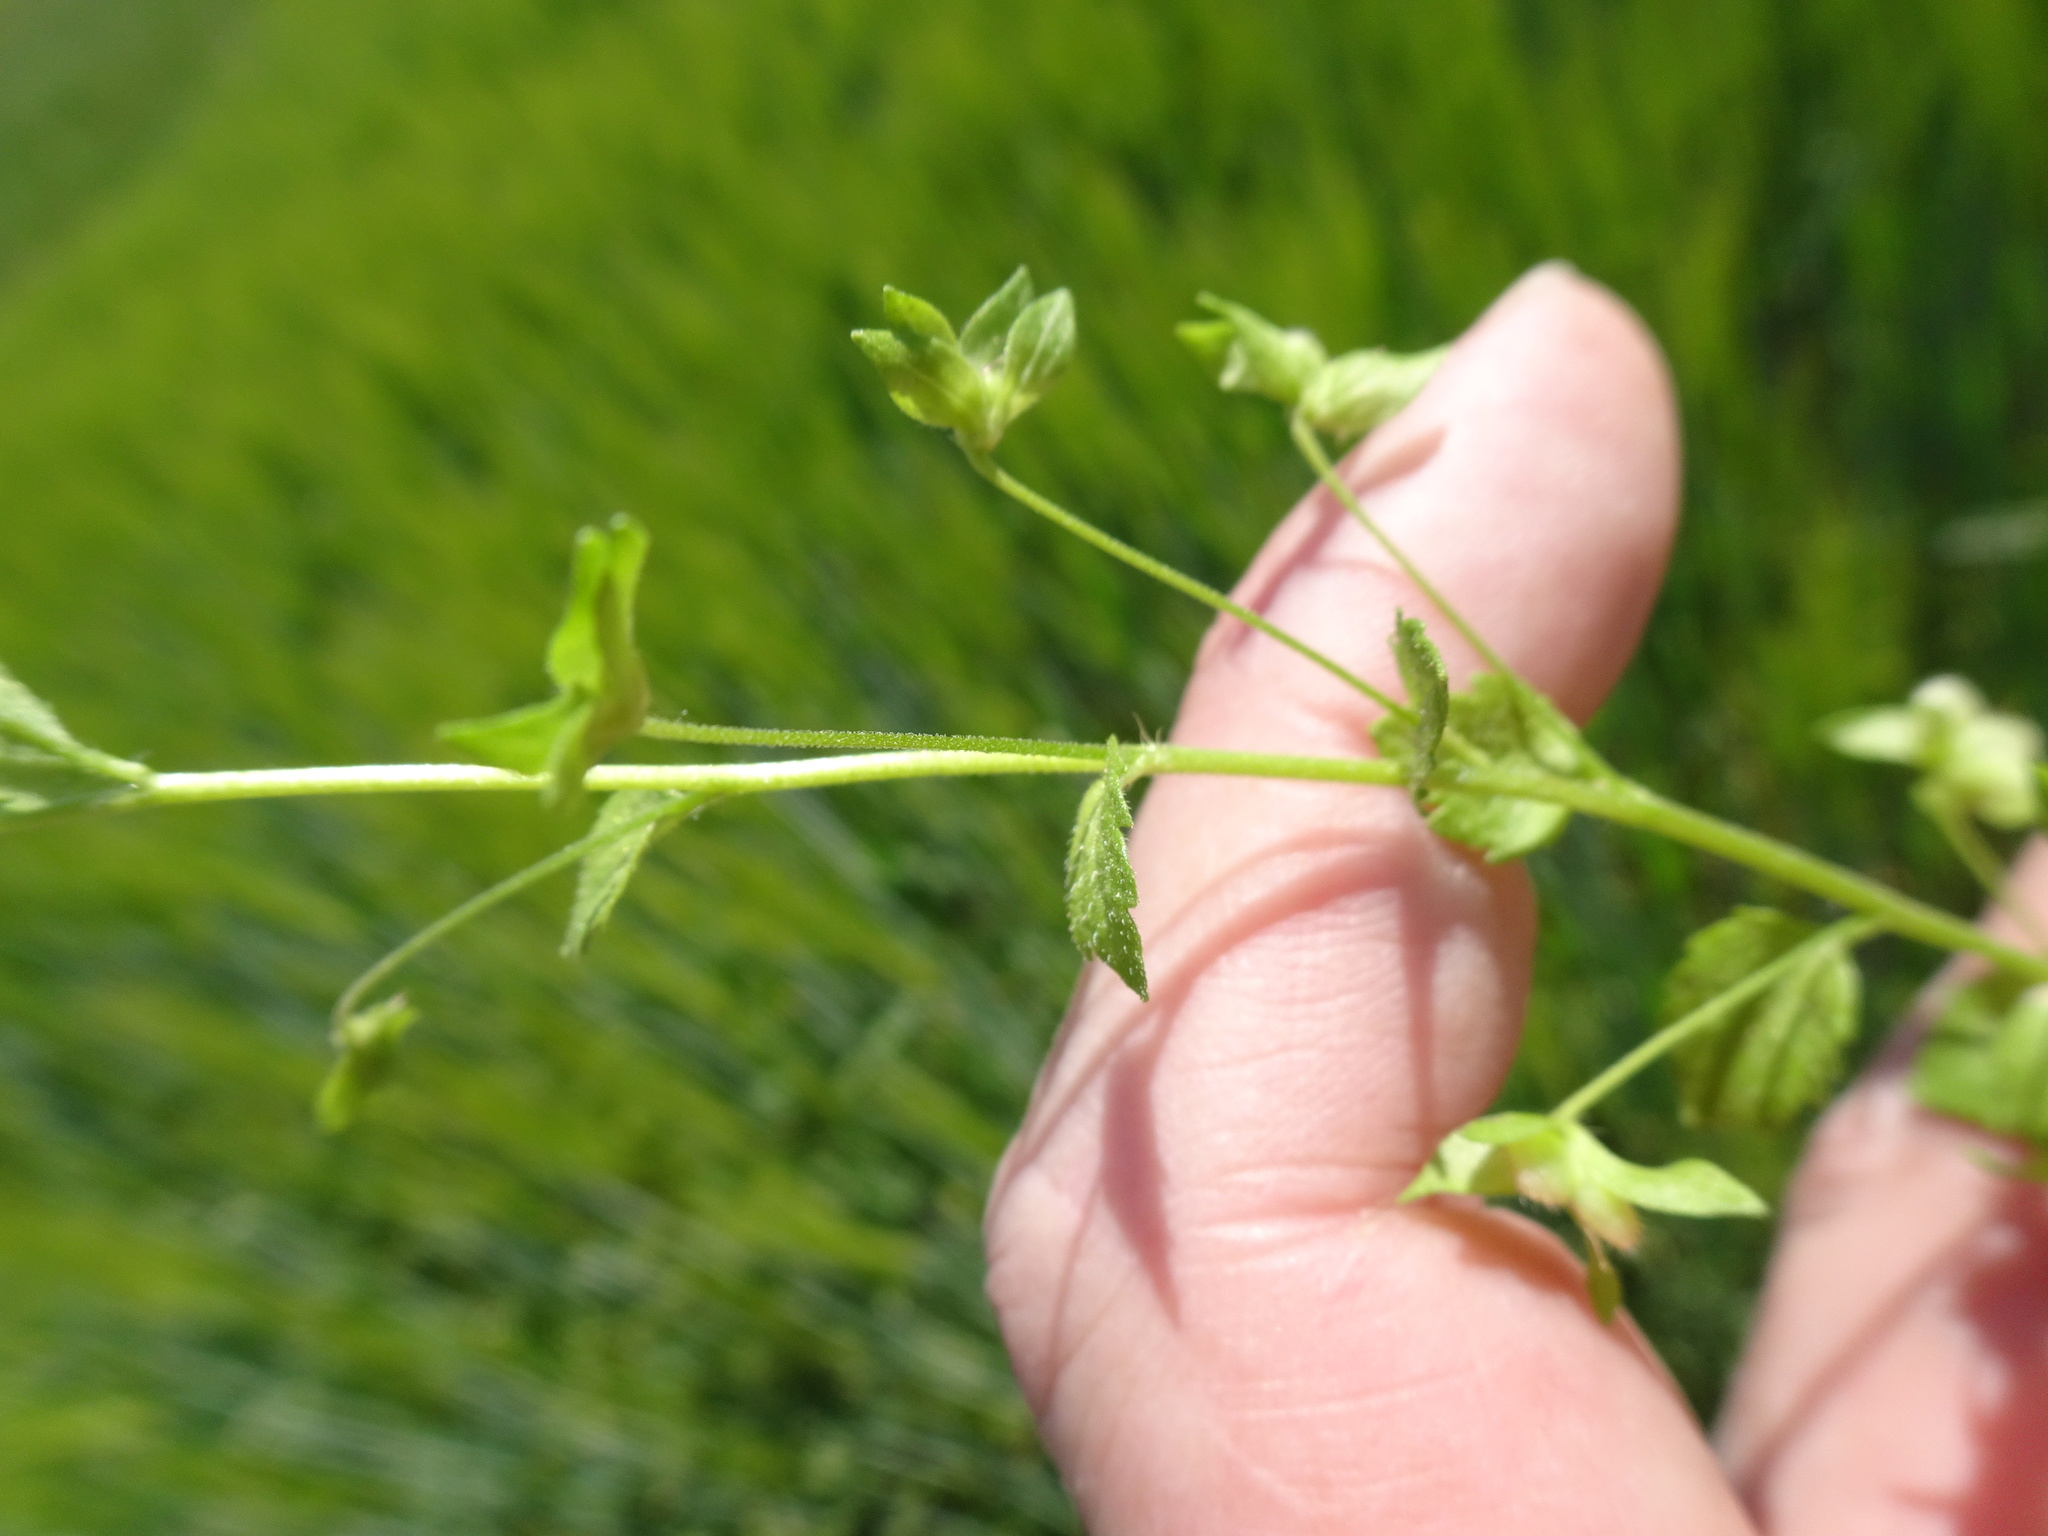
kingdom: Plantae
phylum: Tracheophyta
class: Magnoliopsida
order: Lamiales
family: Plantaginaceae
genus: Veronica
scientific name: Veronica filiformis
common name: Slender speedwell
